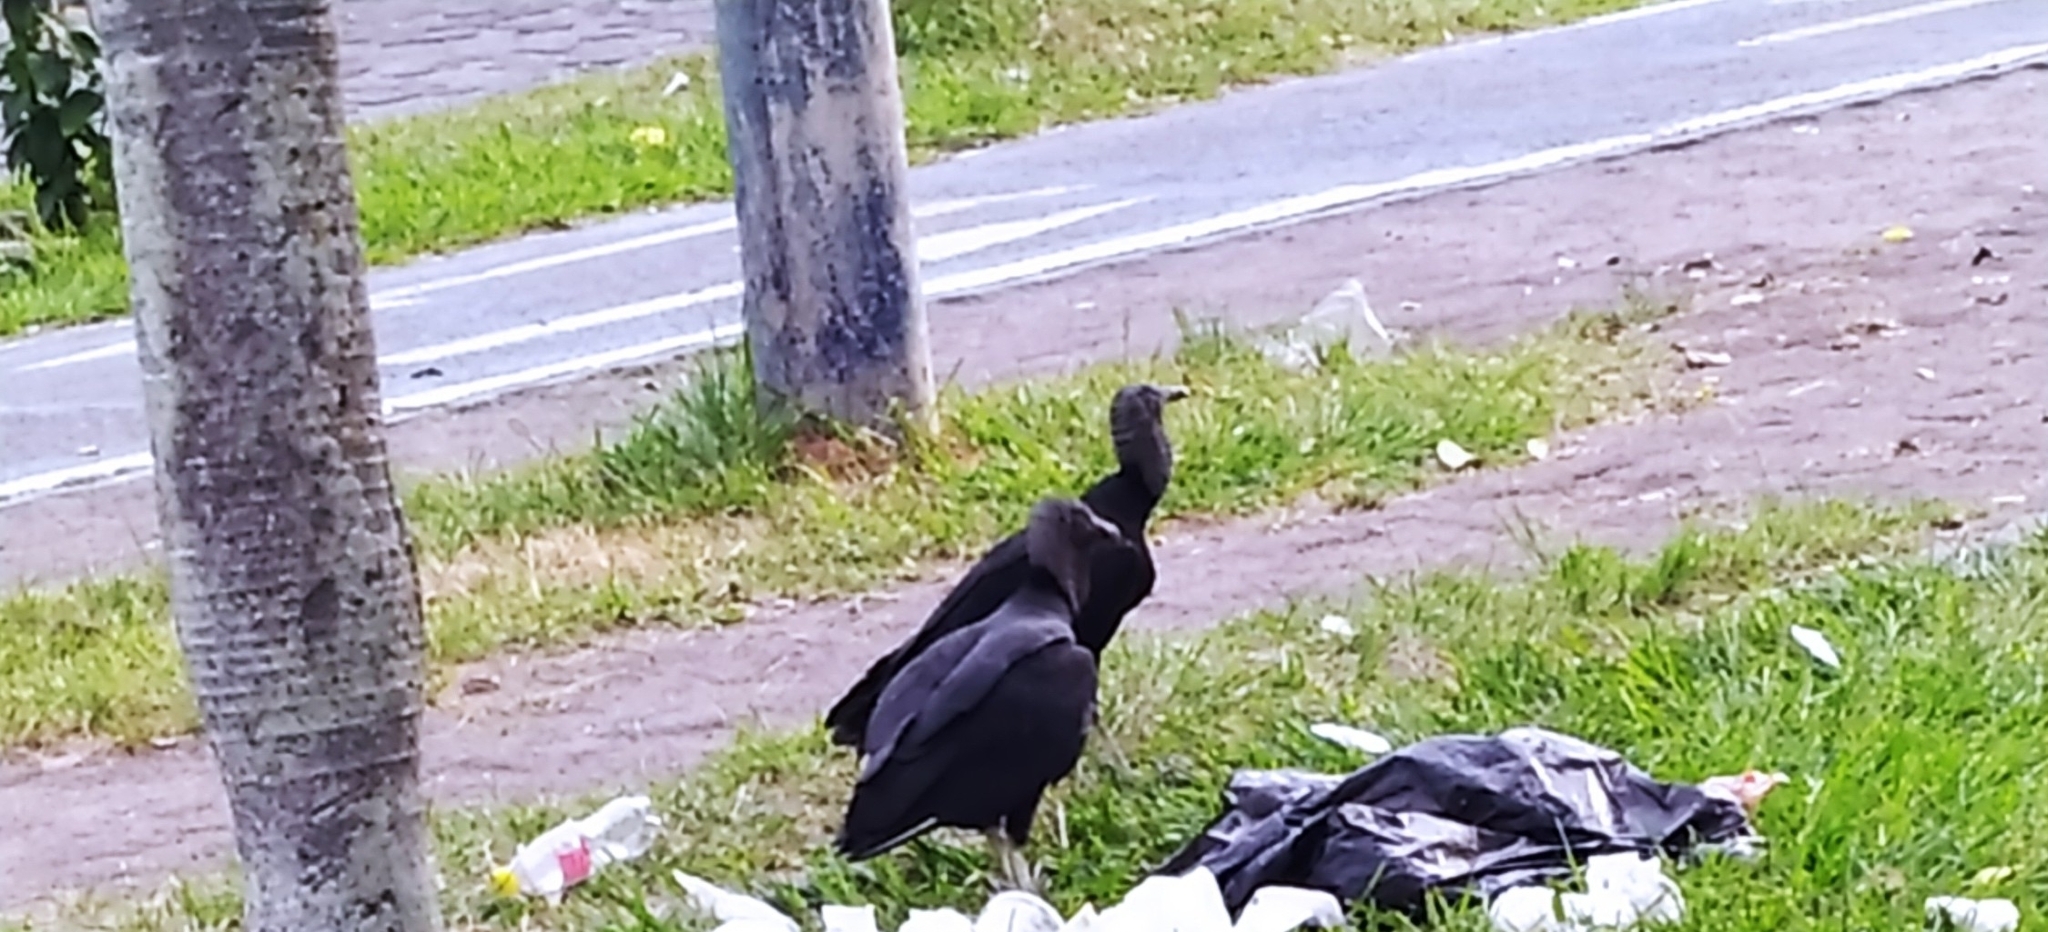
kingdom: Animalia
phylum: Chordata
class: Aves
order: Accipitriformes
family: Cathartidae
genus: Coragyps
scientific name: Coragyps atratus
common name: Black vulture
